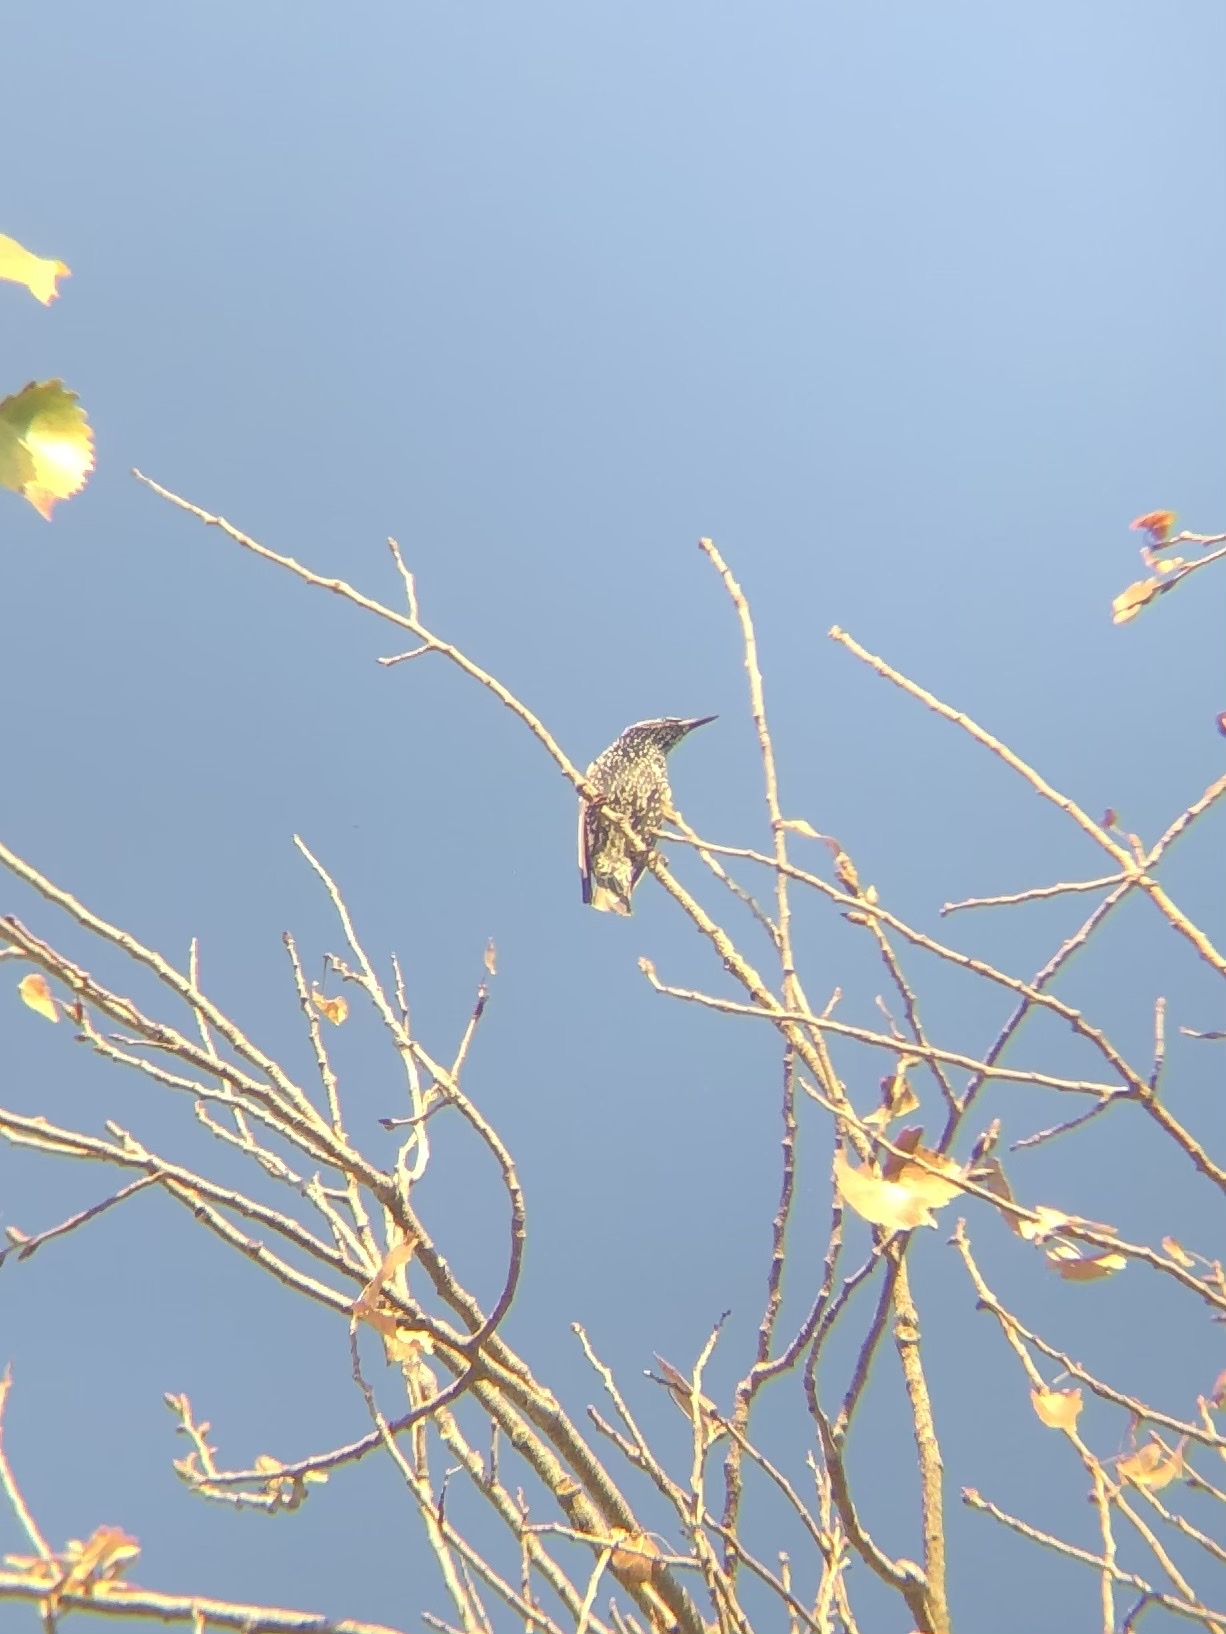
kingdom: Animalia
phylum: Chordata
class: Aves
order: Passeriformes
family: Sturnidae
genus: Sturnus
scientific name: Sturnus vulgaris
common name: Common starling
